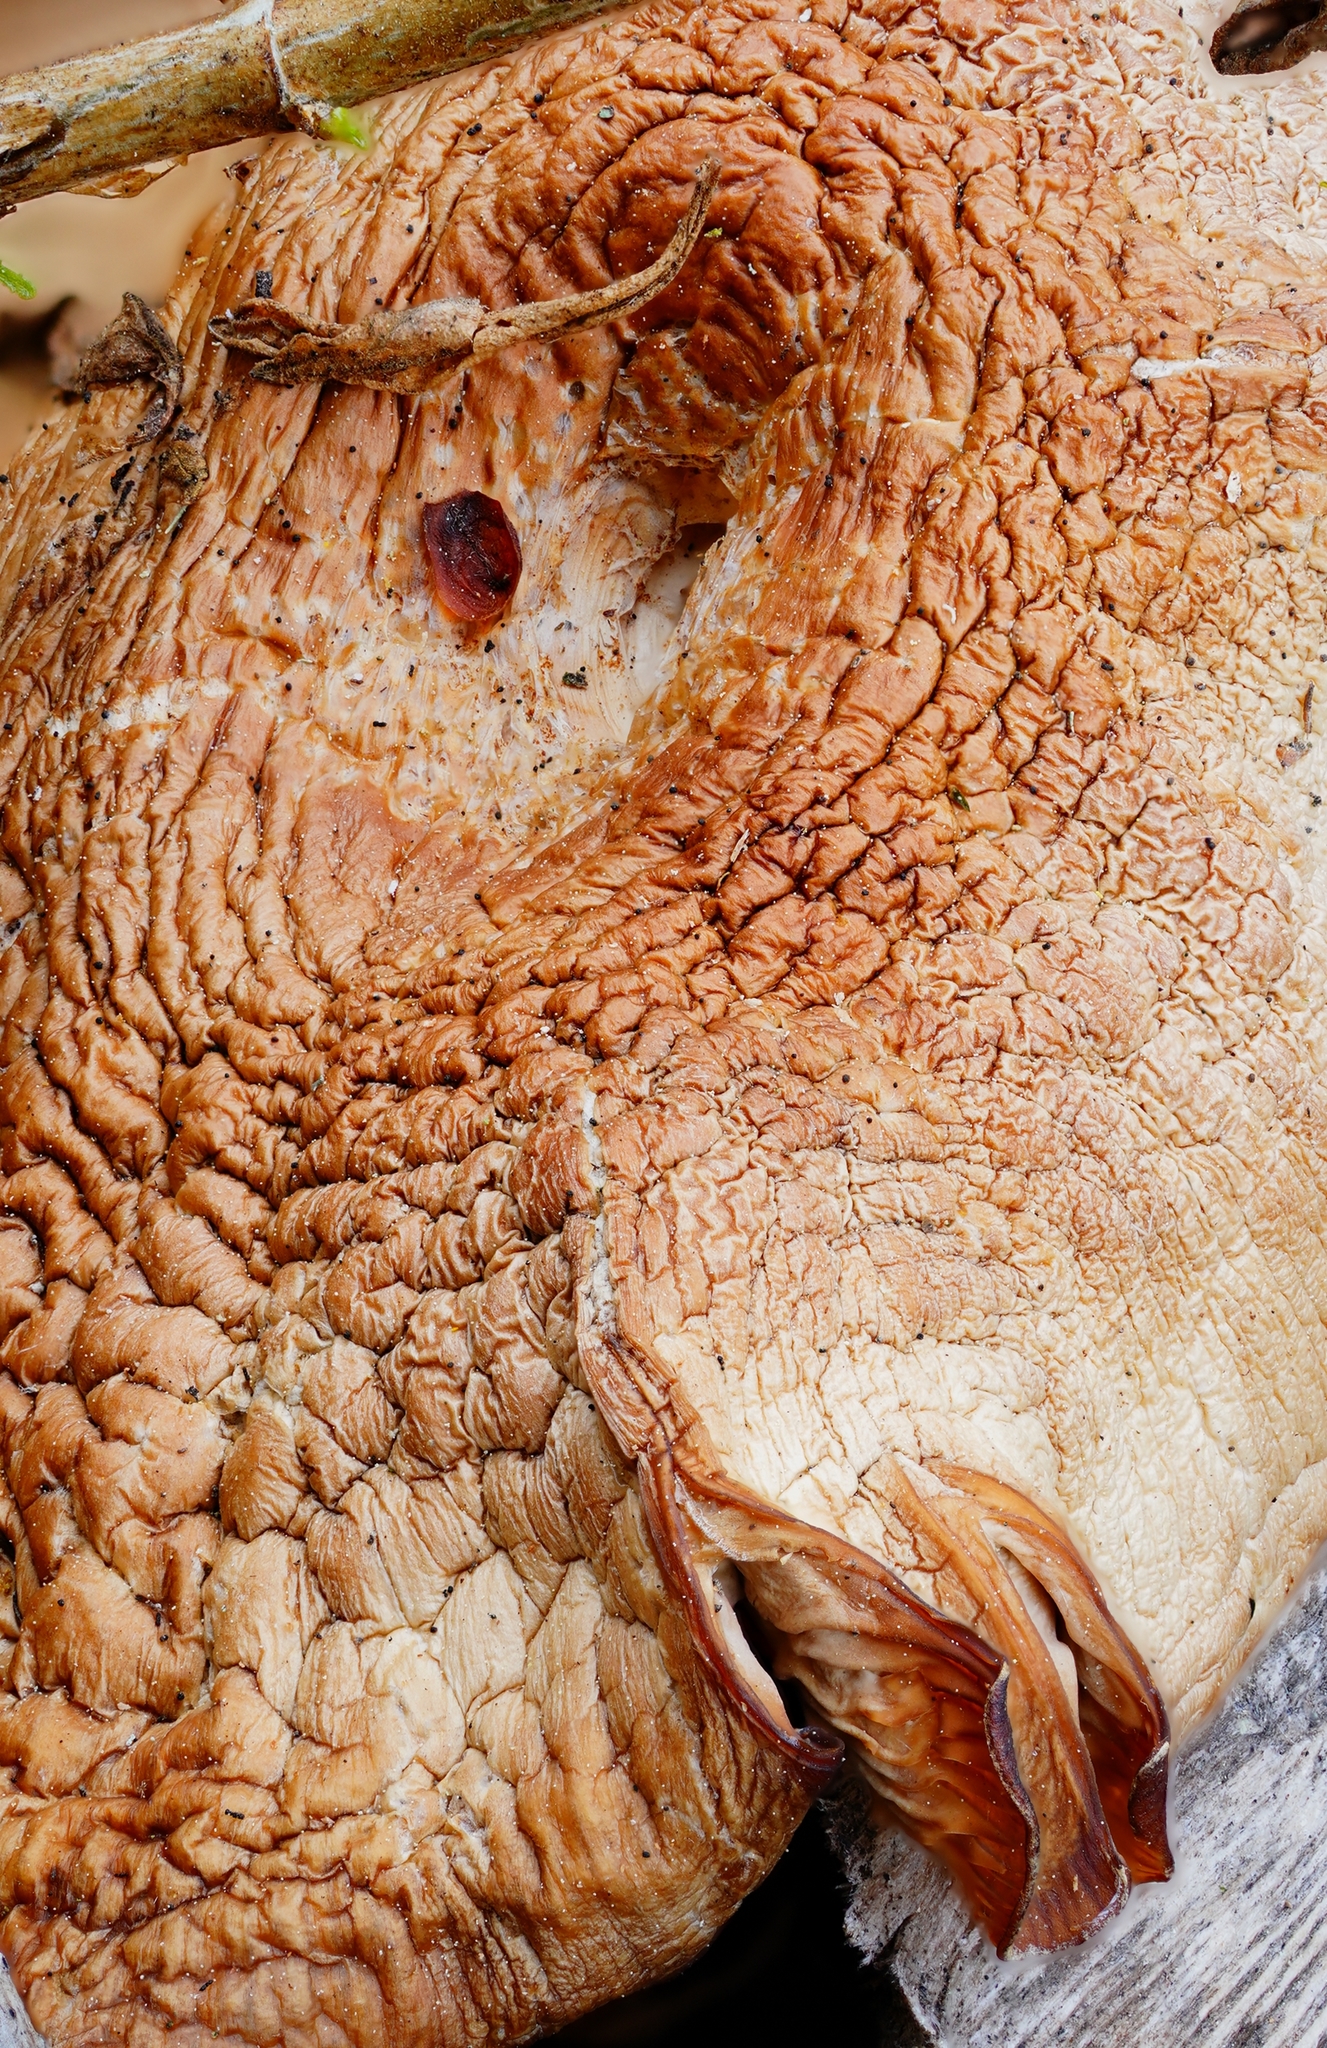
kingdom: Fungi
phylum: Basidiomycota
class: Agaricomycetes
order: Agaricales
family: Amanitaceae
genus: Amanita
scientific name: Amanita novinupta
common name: Blushing bride
